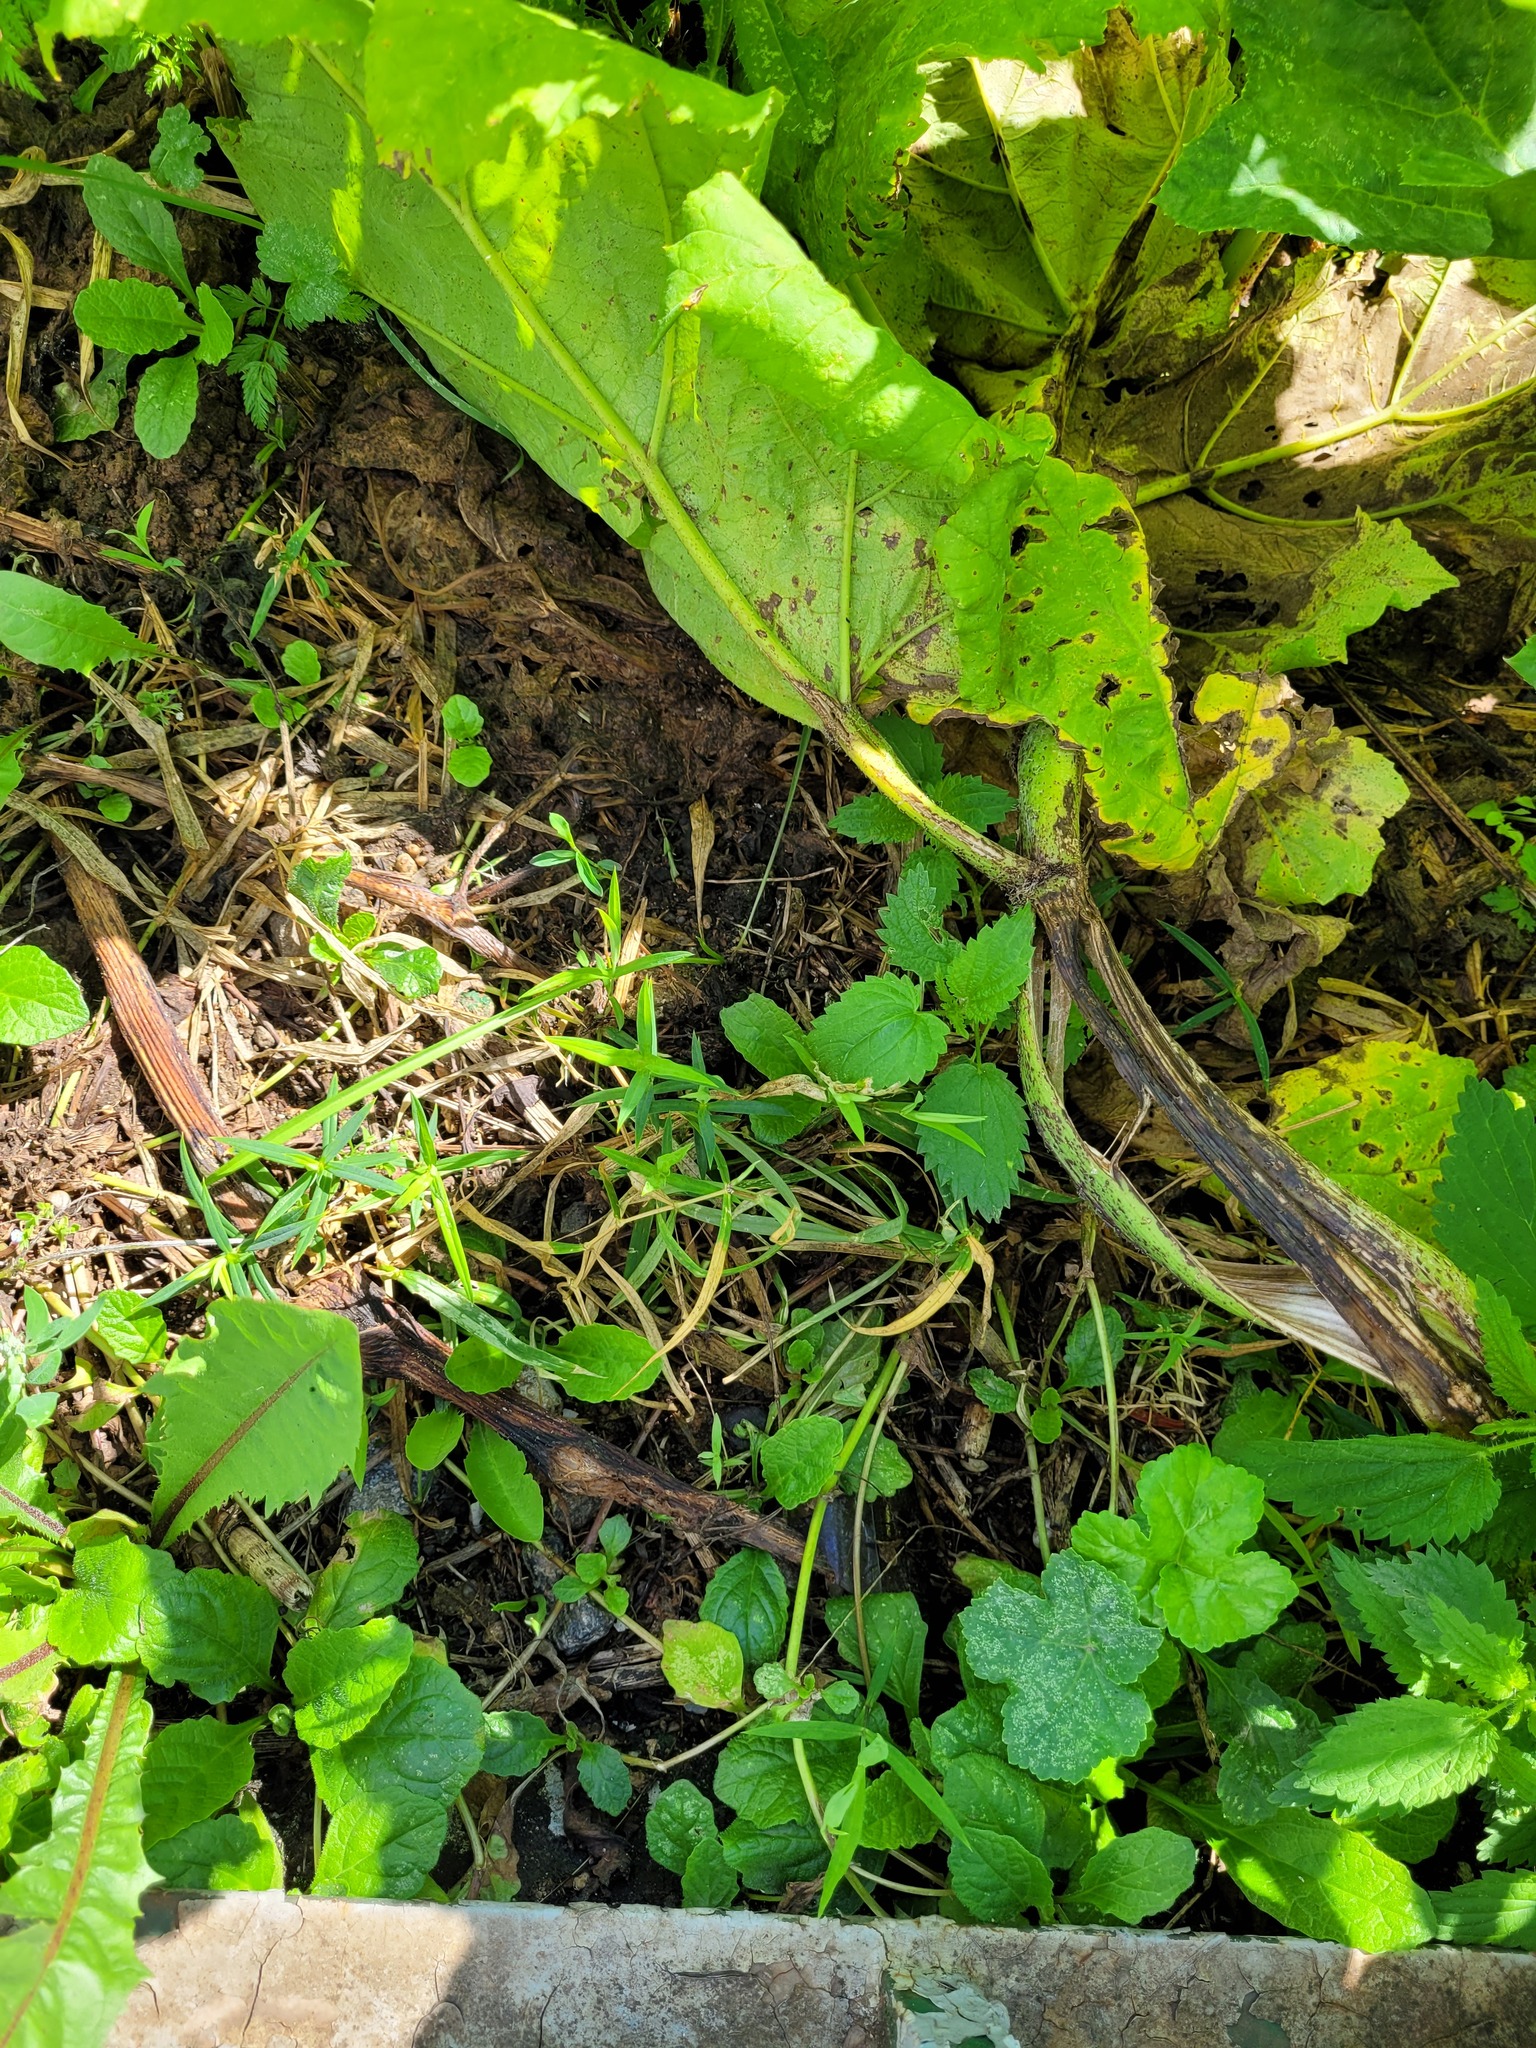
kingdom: Plantae
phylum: Tracheophyta
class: Magnoliopsida
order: Caryophyllales
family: Caryophyllaceae
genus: Rabelera
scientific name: Rabelera holostea
